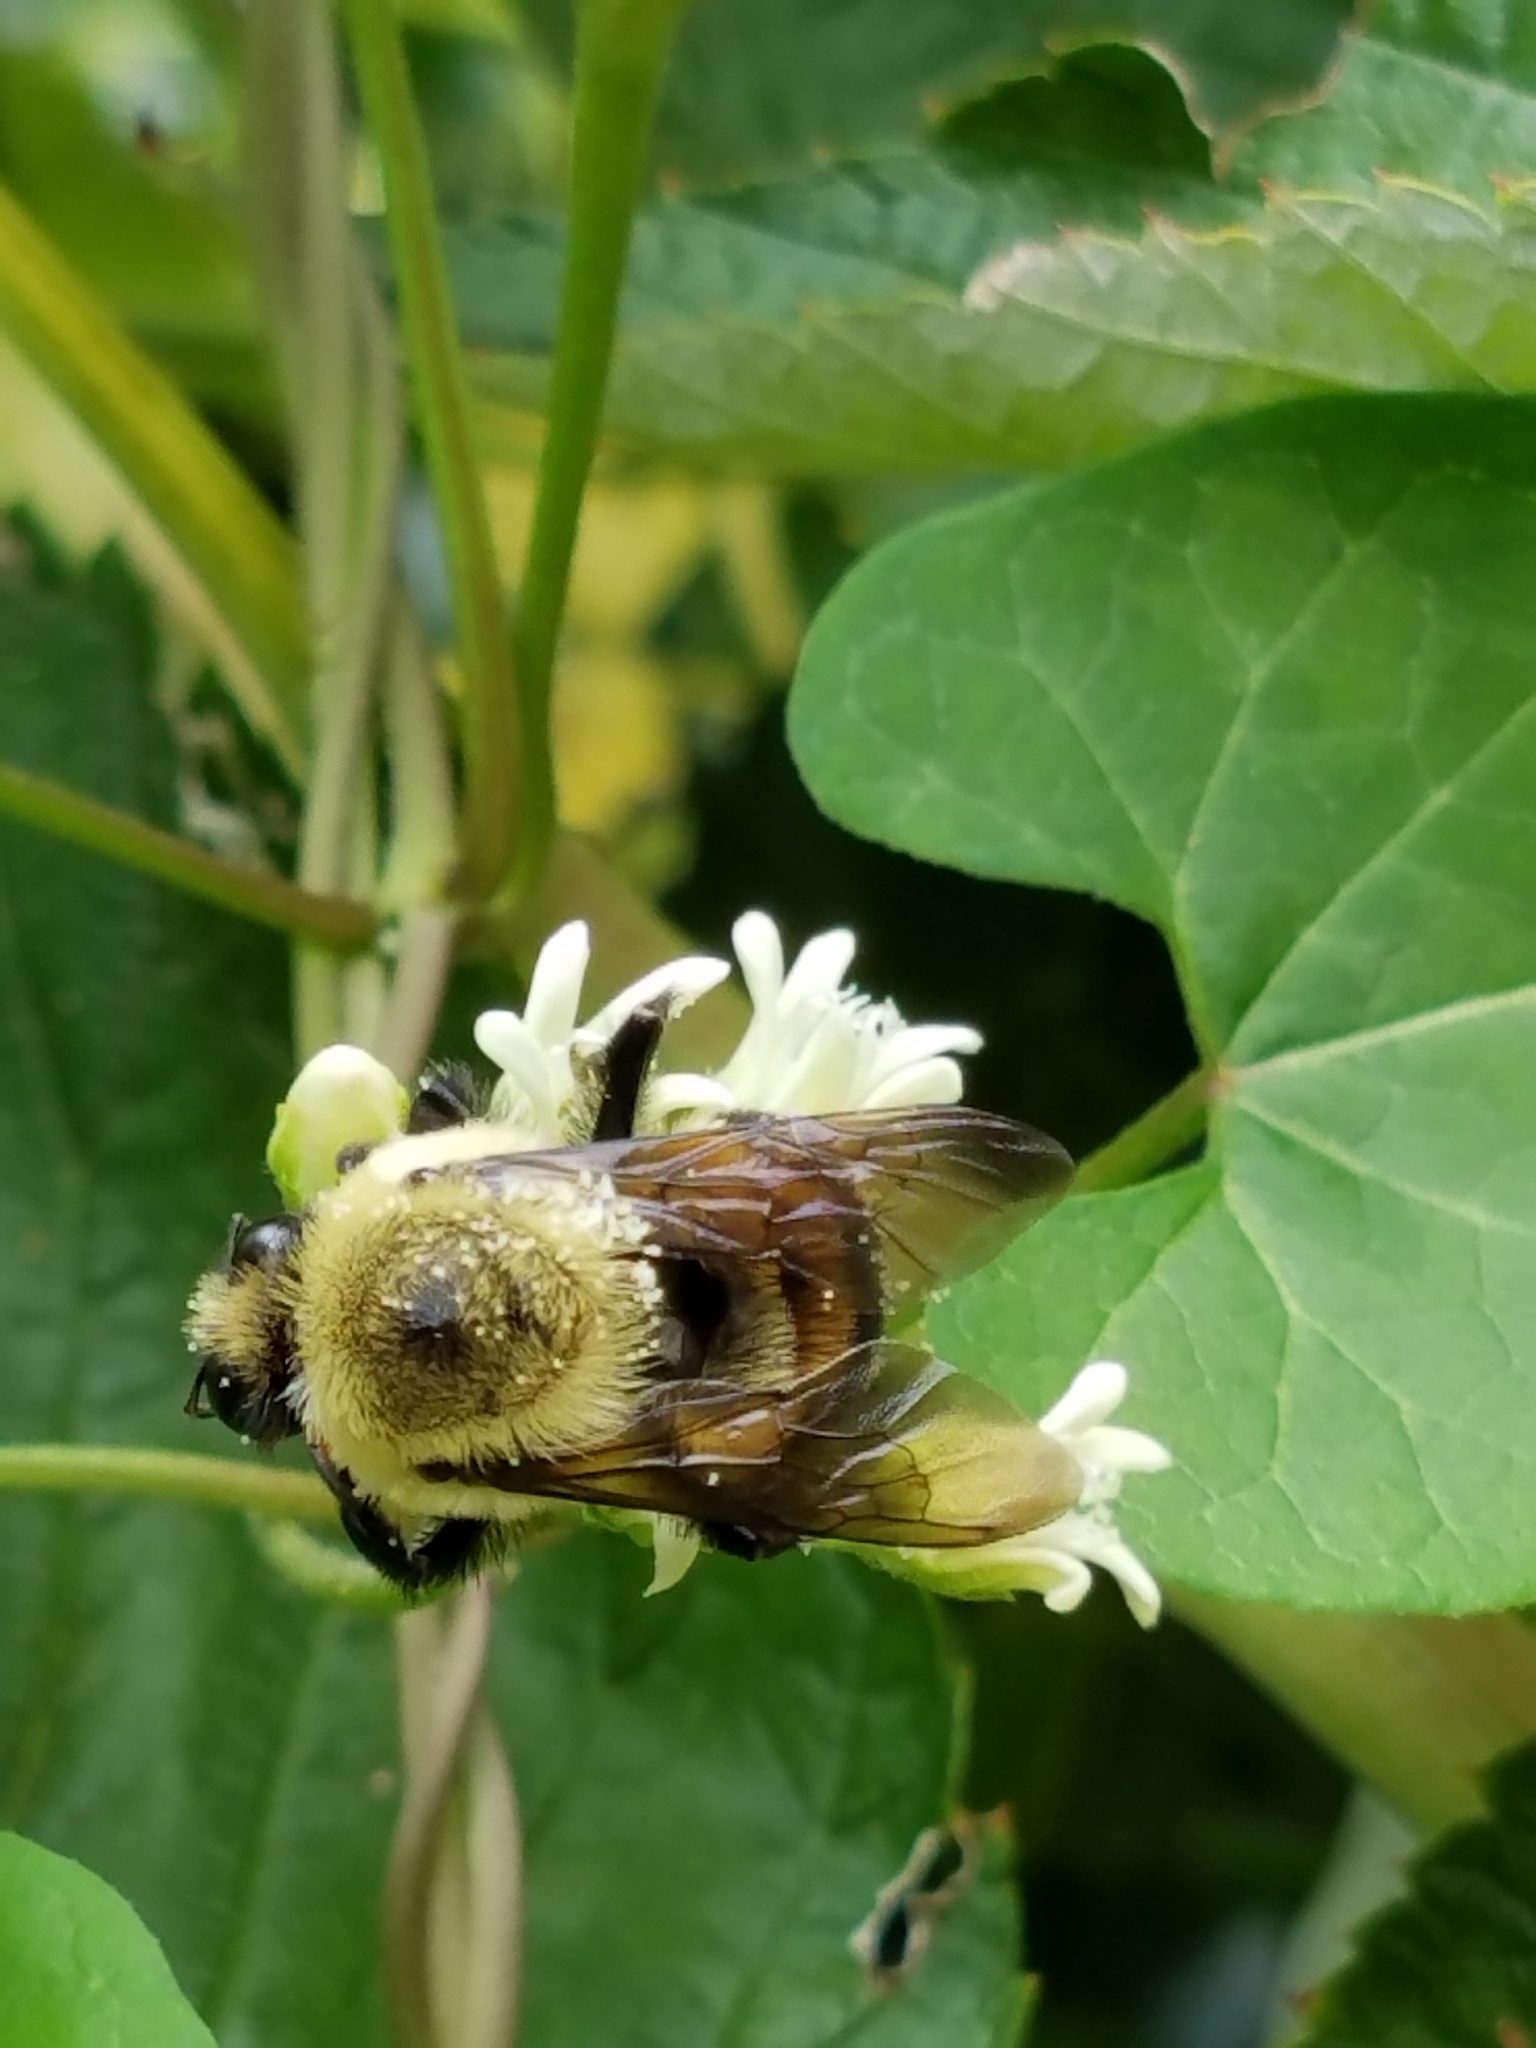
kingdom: Animalia
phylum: Arthropoda
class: Insecta
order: Hymenoptera
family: Apidae
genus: Bombus
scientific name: Bombus griseocollis
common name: Brown-belted bumble bee
